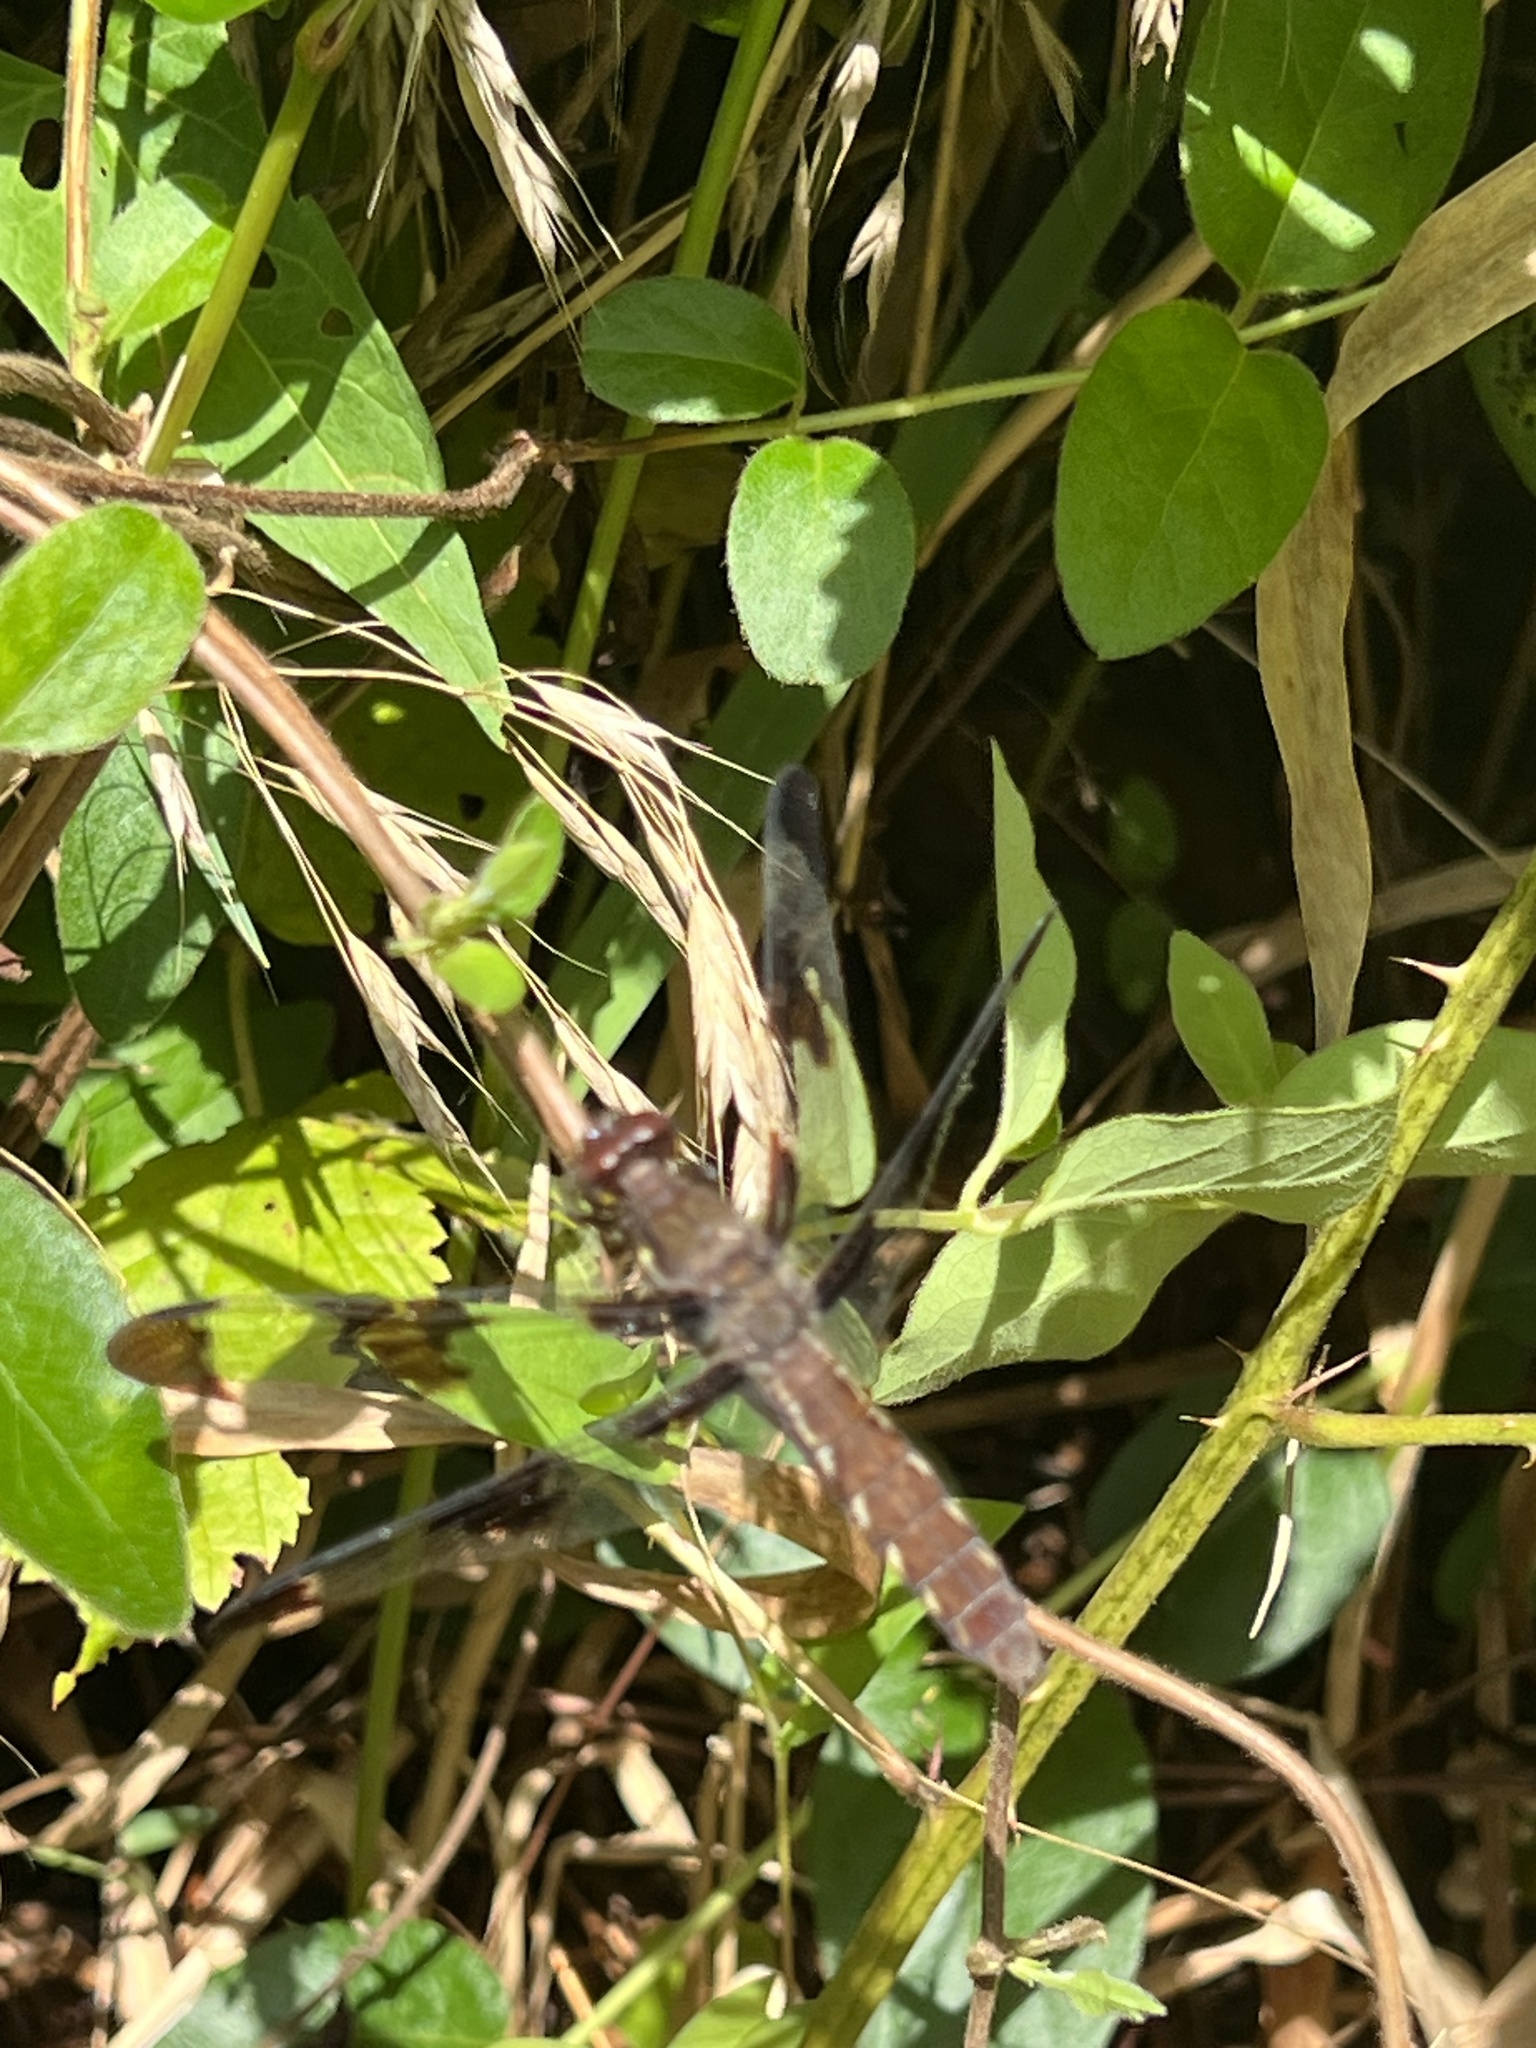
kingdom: Animalia
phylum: Arthropoda
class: Insecta
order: Odonata
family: Libellulidae
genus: Plathemis
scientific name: Plathemis lydia
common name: Common whitetail
